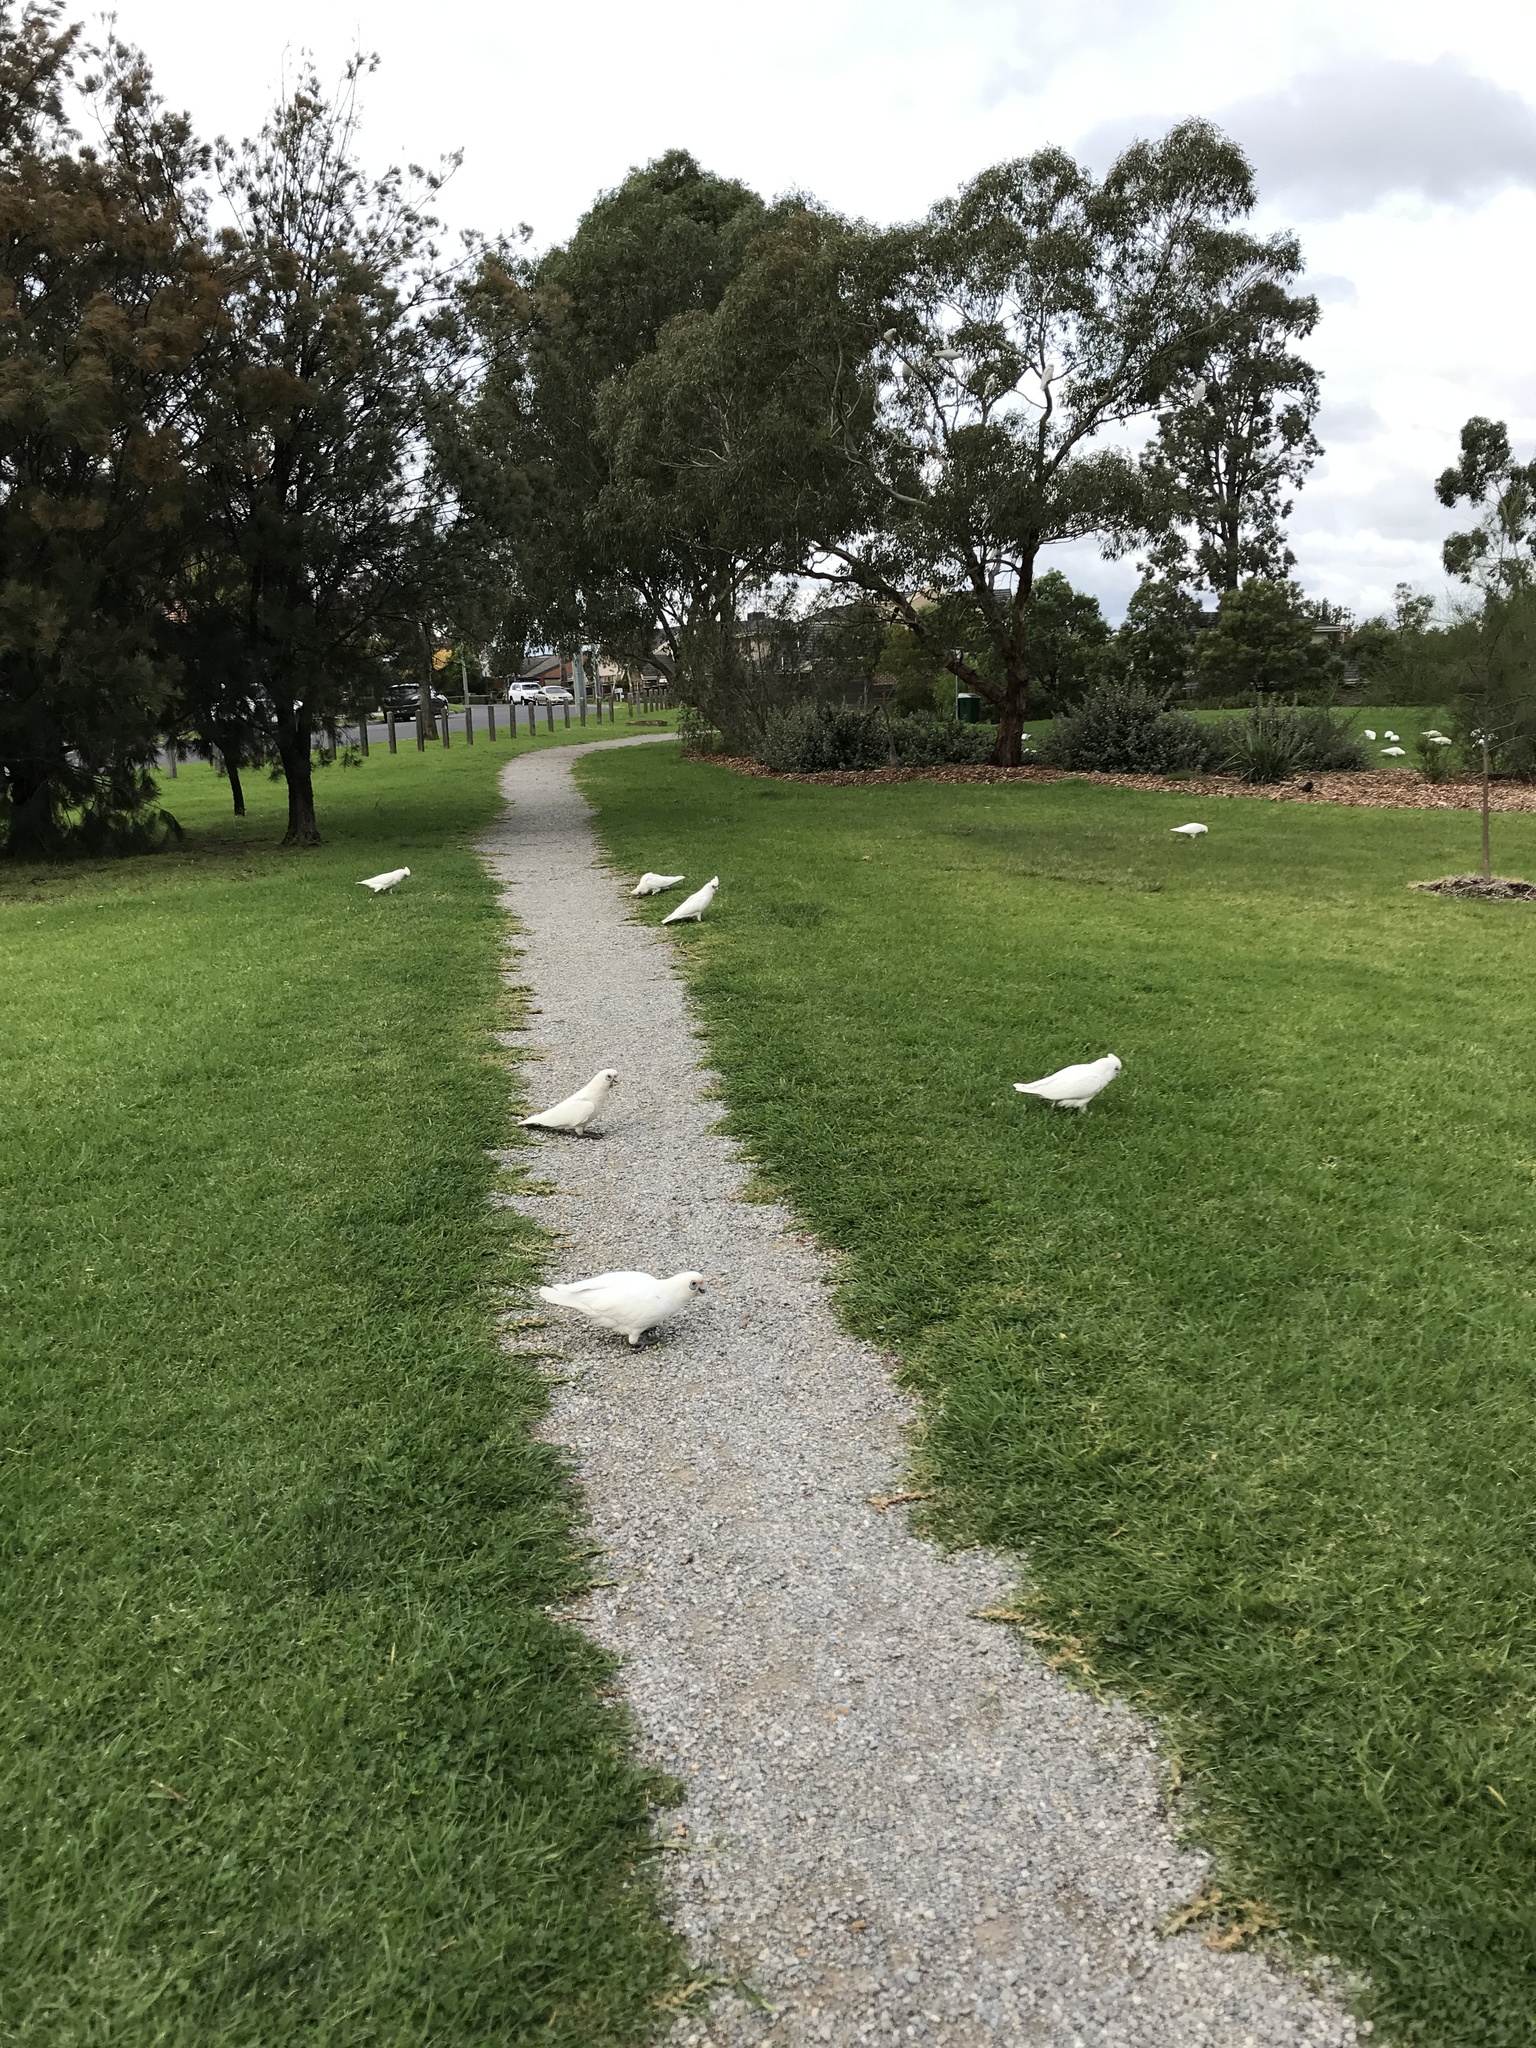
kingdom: Animalia
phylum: Chordata
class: Aves
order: Psittaciformes
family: Psittacidae
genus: Cacatua
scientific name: Cacatua sanguinea
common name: Little corella
